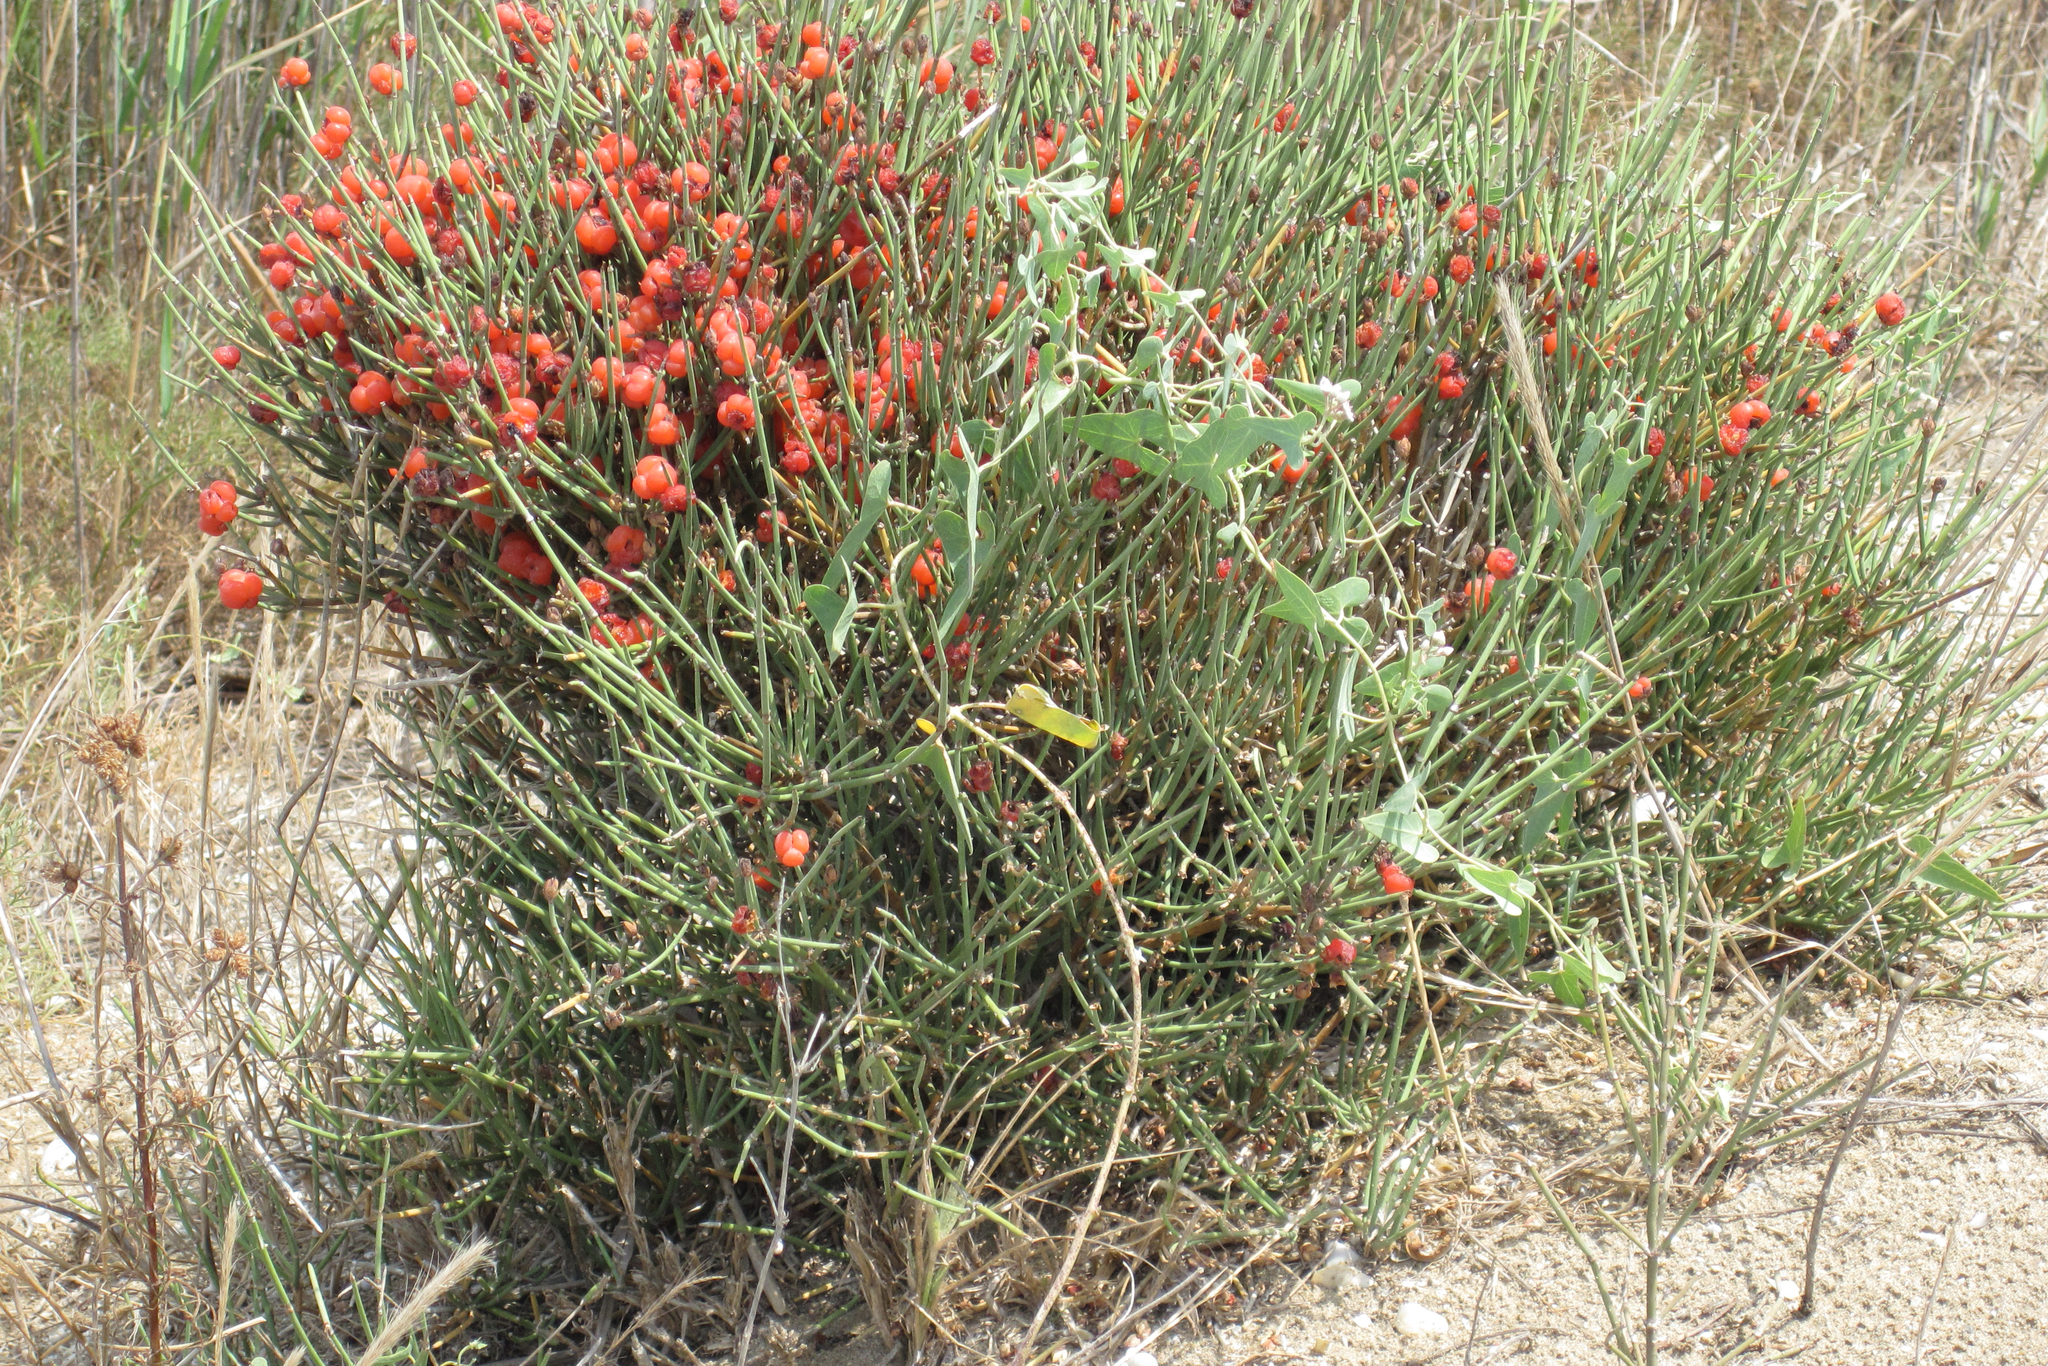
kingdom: Plantae
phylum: Tracheophyta
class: Gnetopsida
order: Ephedrales
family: Ephedraceae
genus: Ephedra
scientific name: Ephedra distachya
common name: Sea grape
